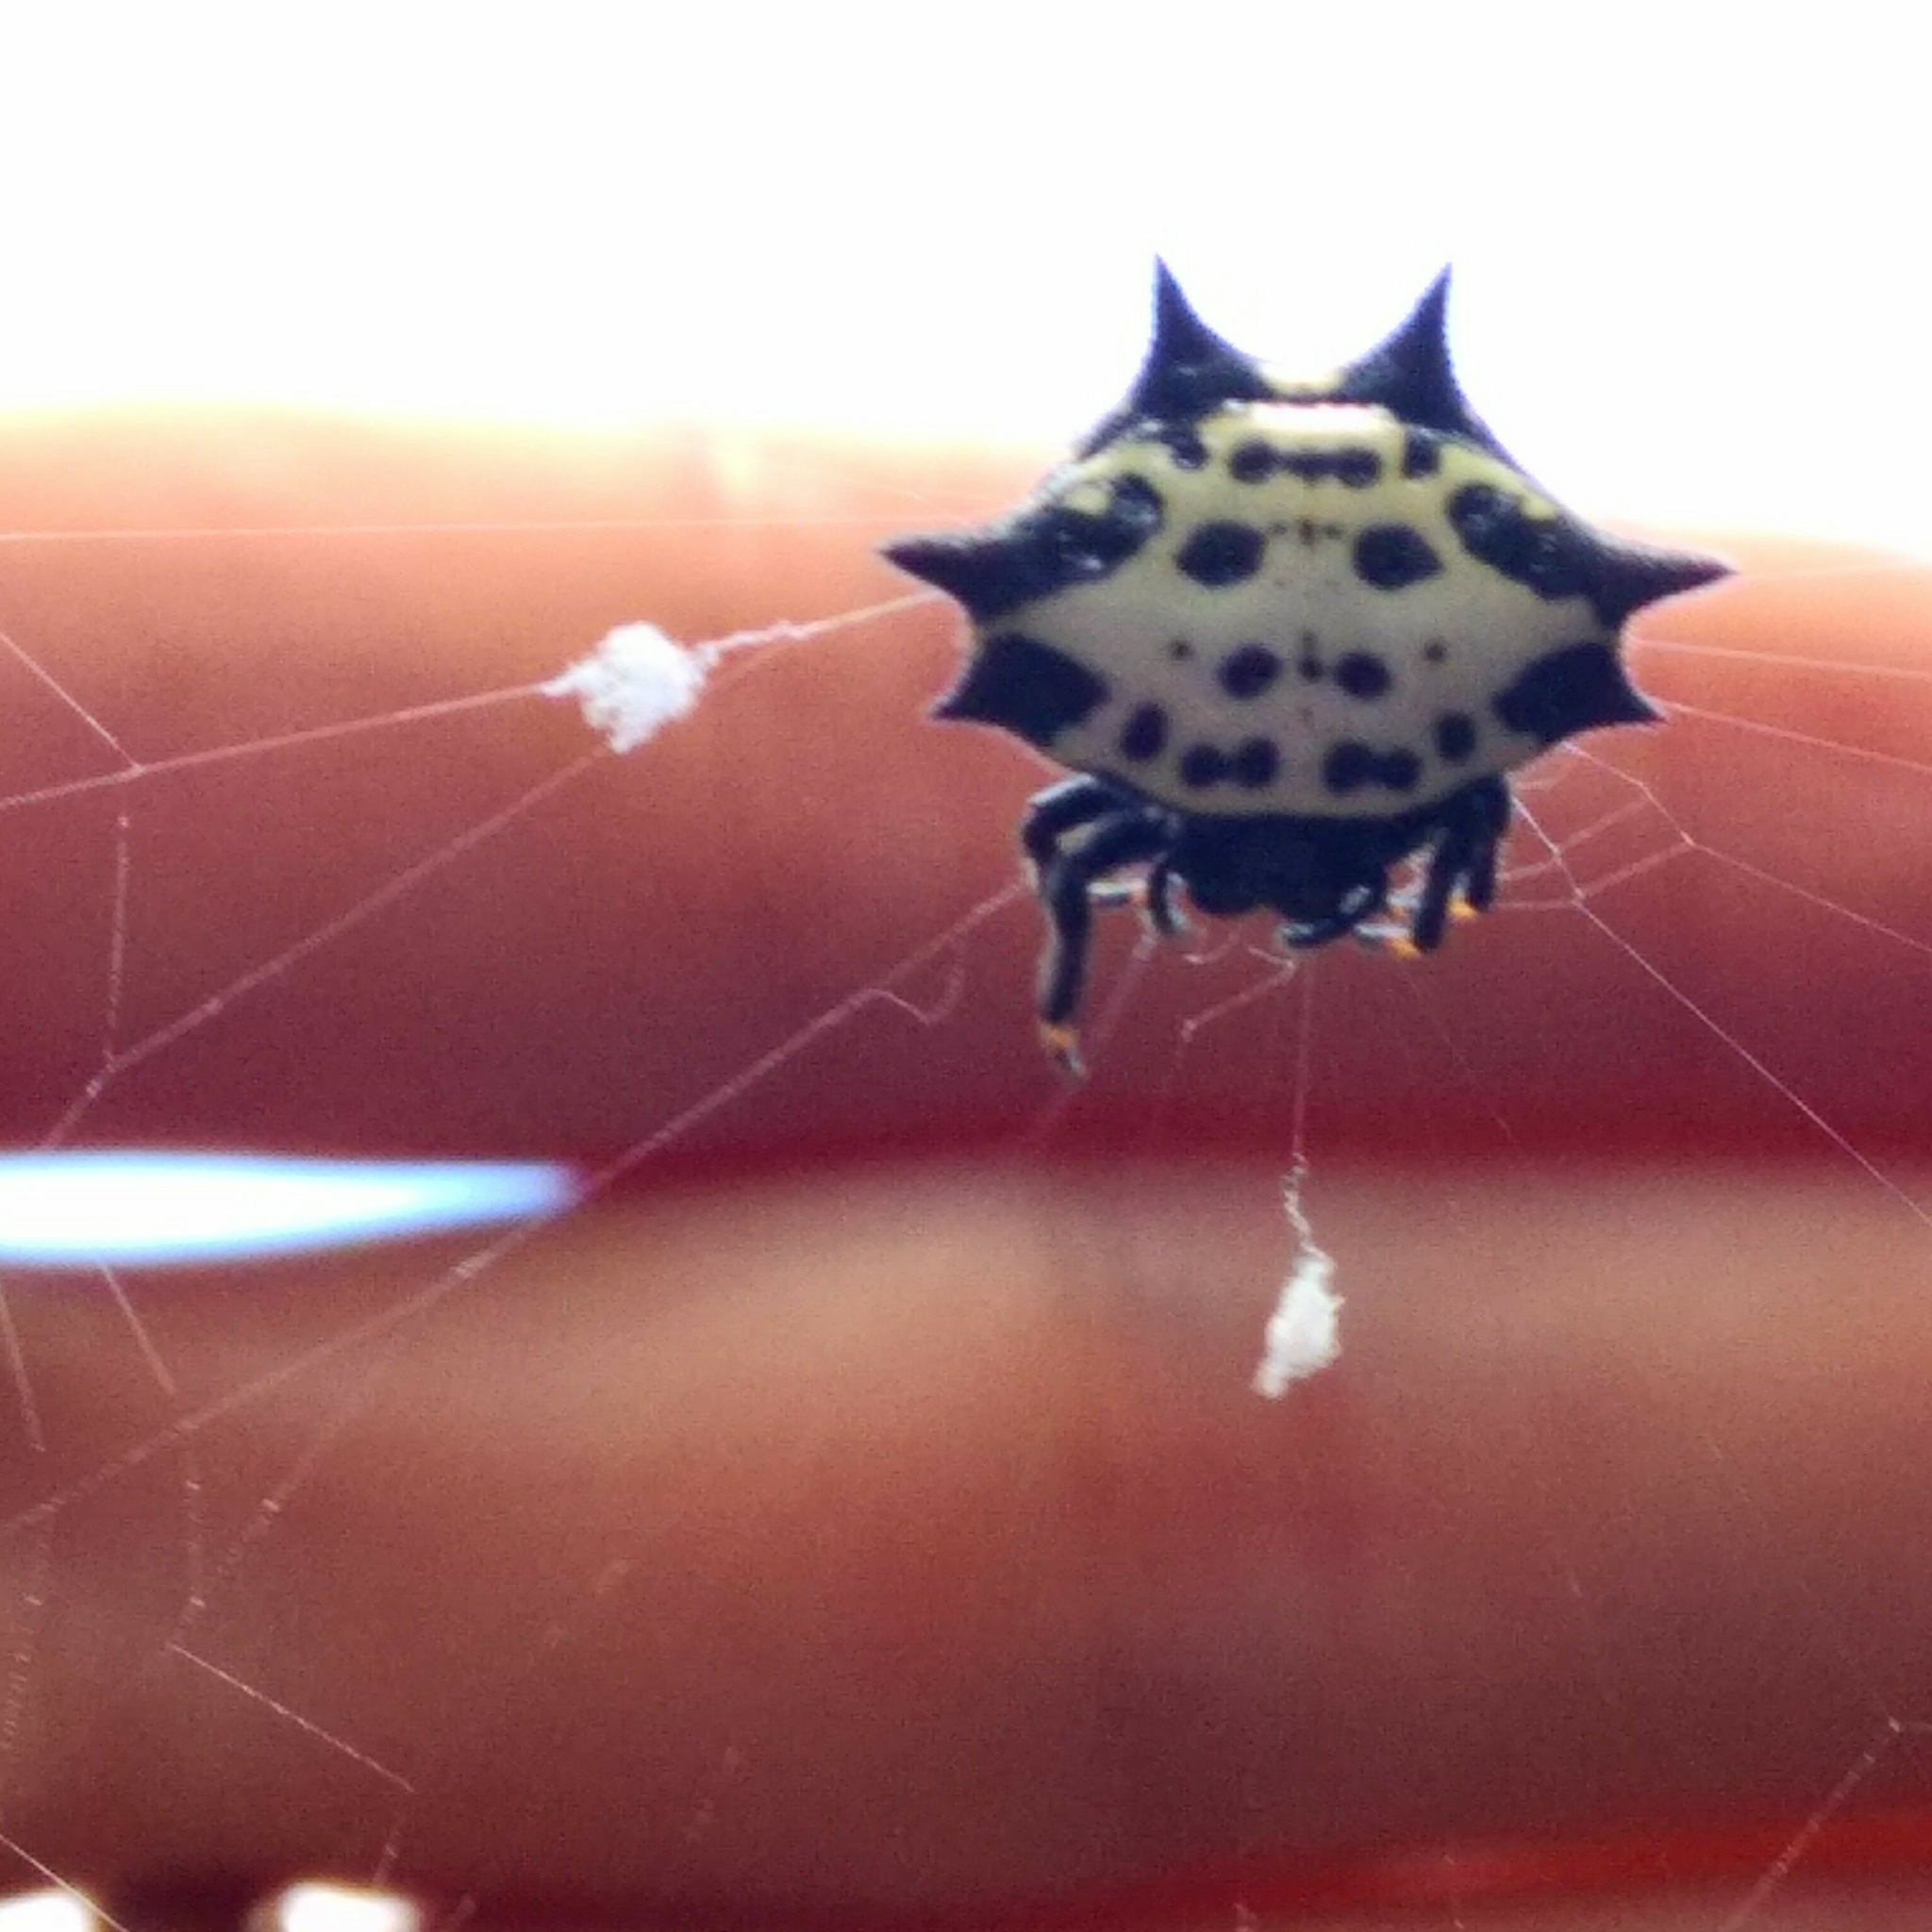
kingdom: Animalia
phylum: Arthropoda
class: Arachnida
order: Araneae
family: Araneidae
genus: Gasteracantha
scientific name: Gasteracantha cancriformis
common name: Orb weavers
